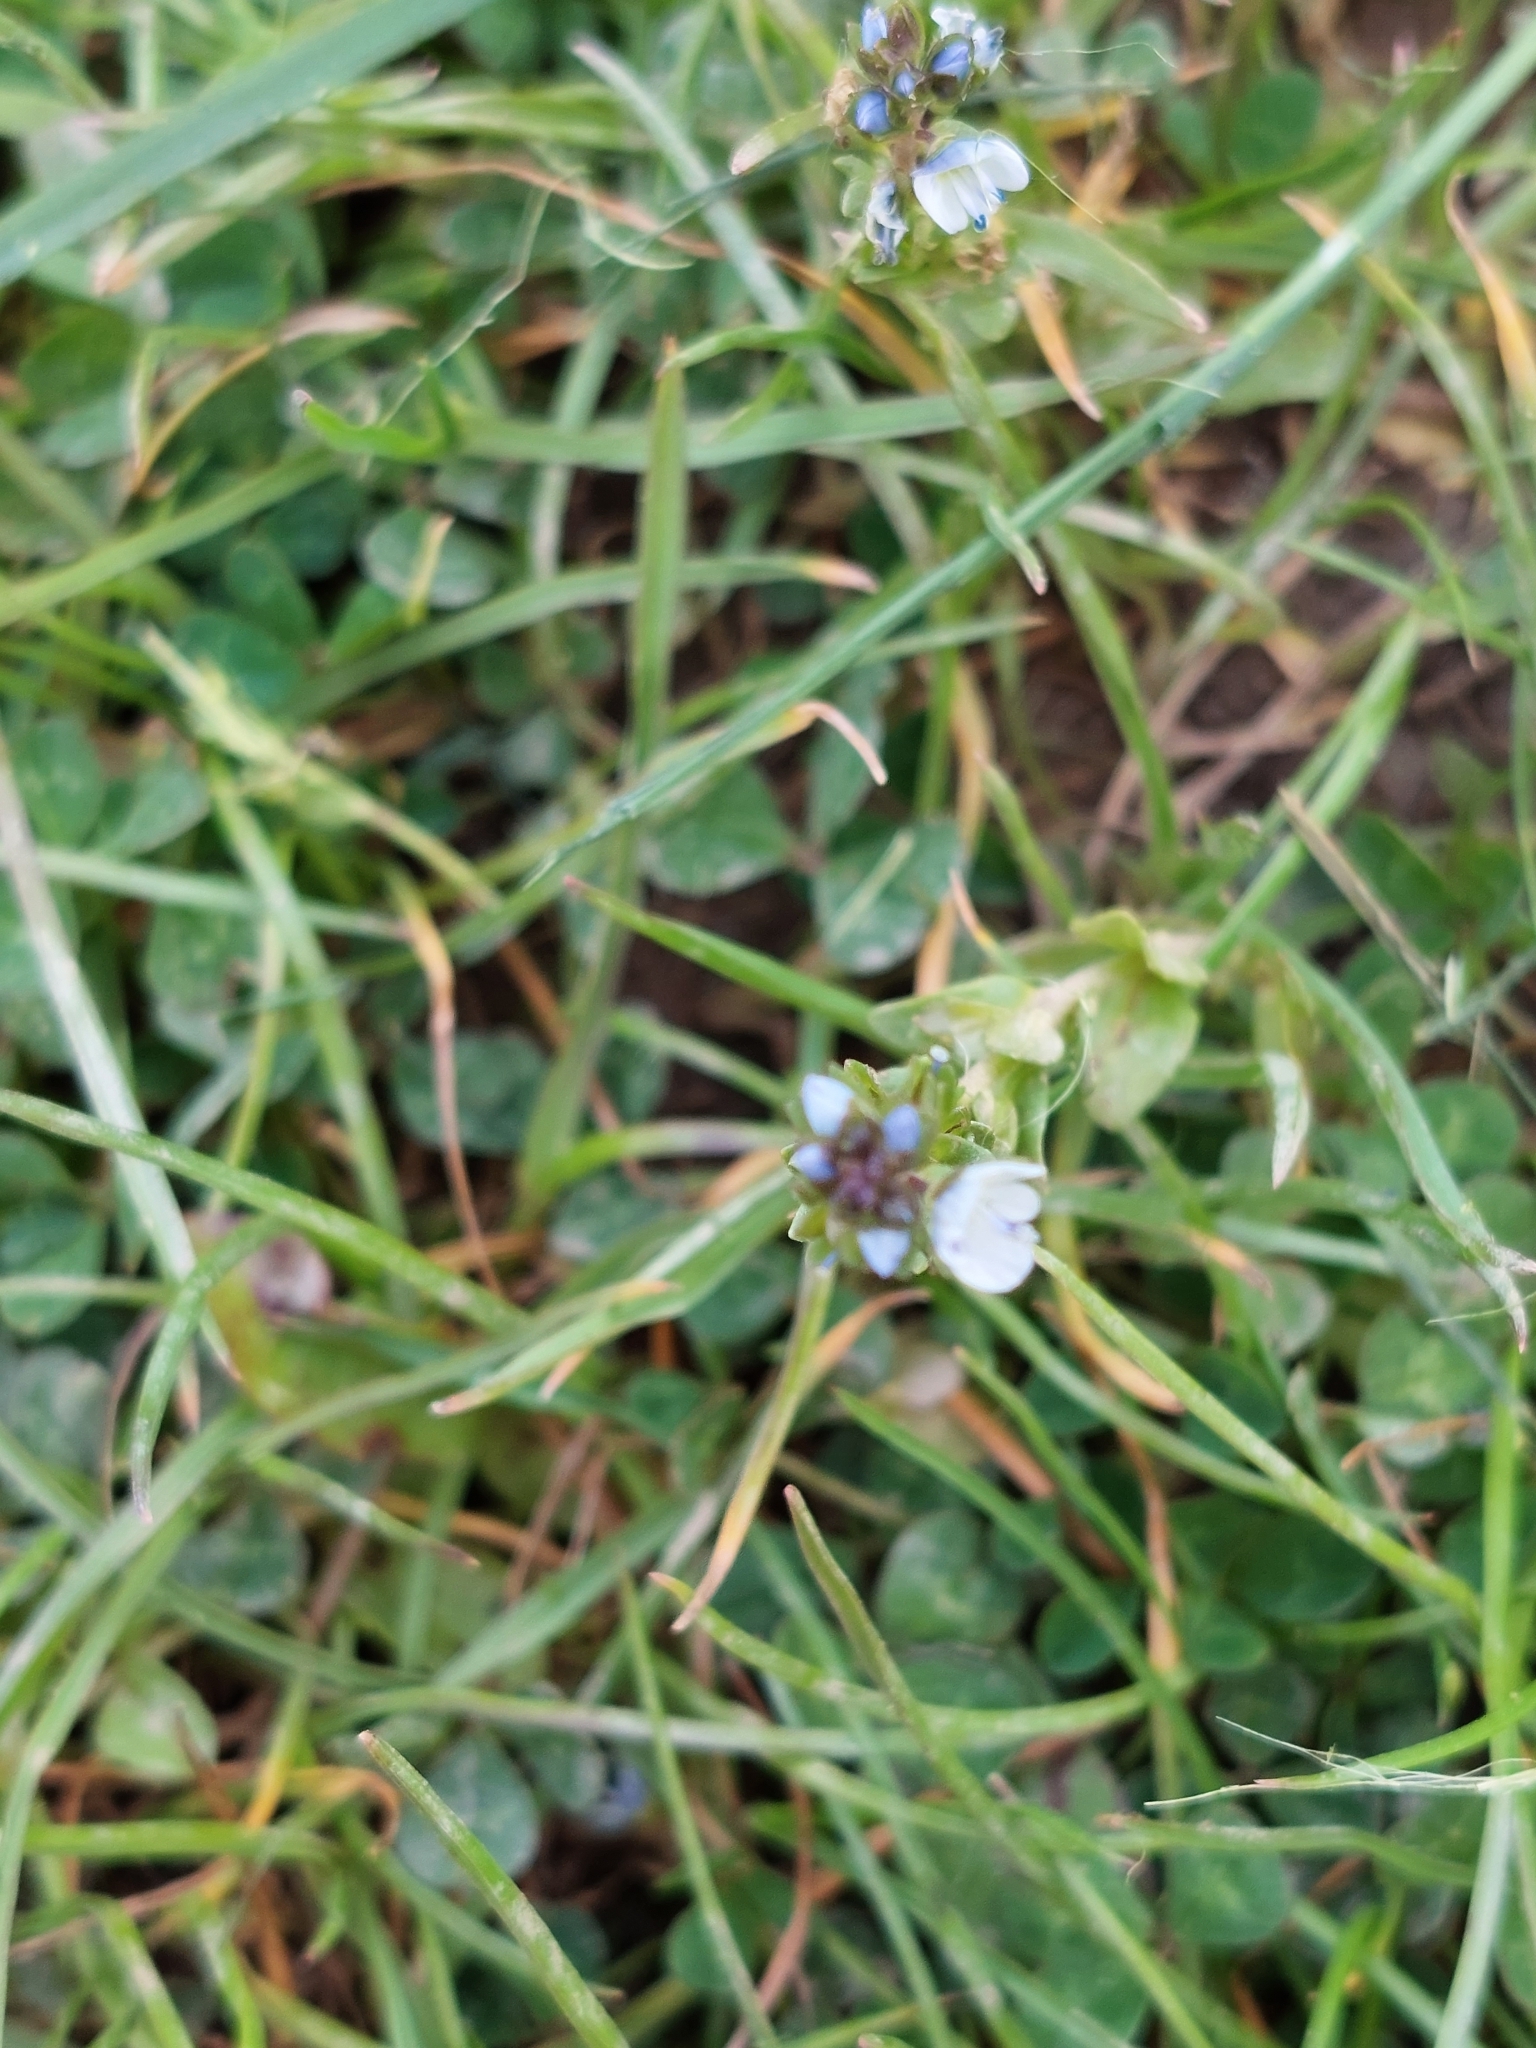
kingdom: Plantae
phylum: Tracheophyta
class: Magnoliopsida
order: Lamiales
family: Plantaginaceae
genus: Veronica
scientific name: Veronica serpyllifolia
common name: Thyme-leaved speedwell
